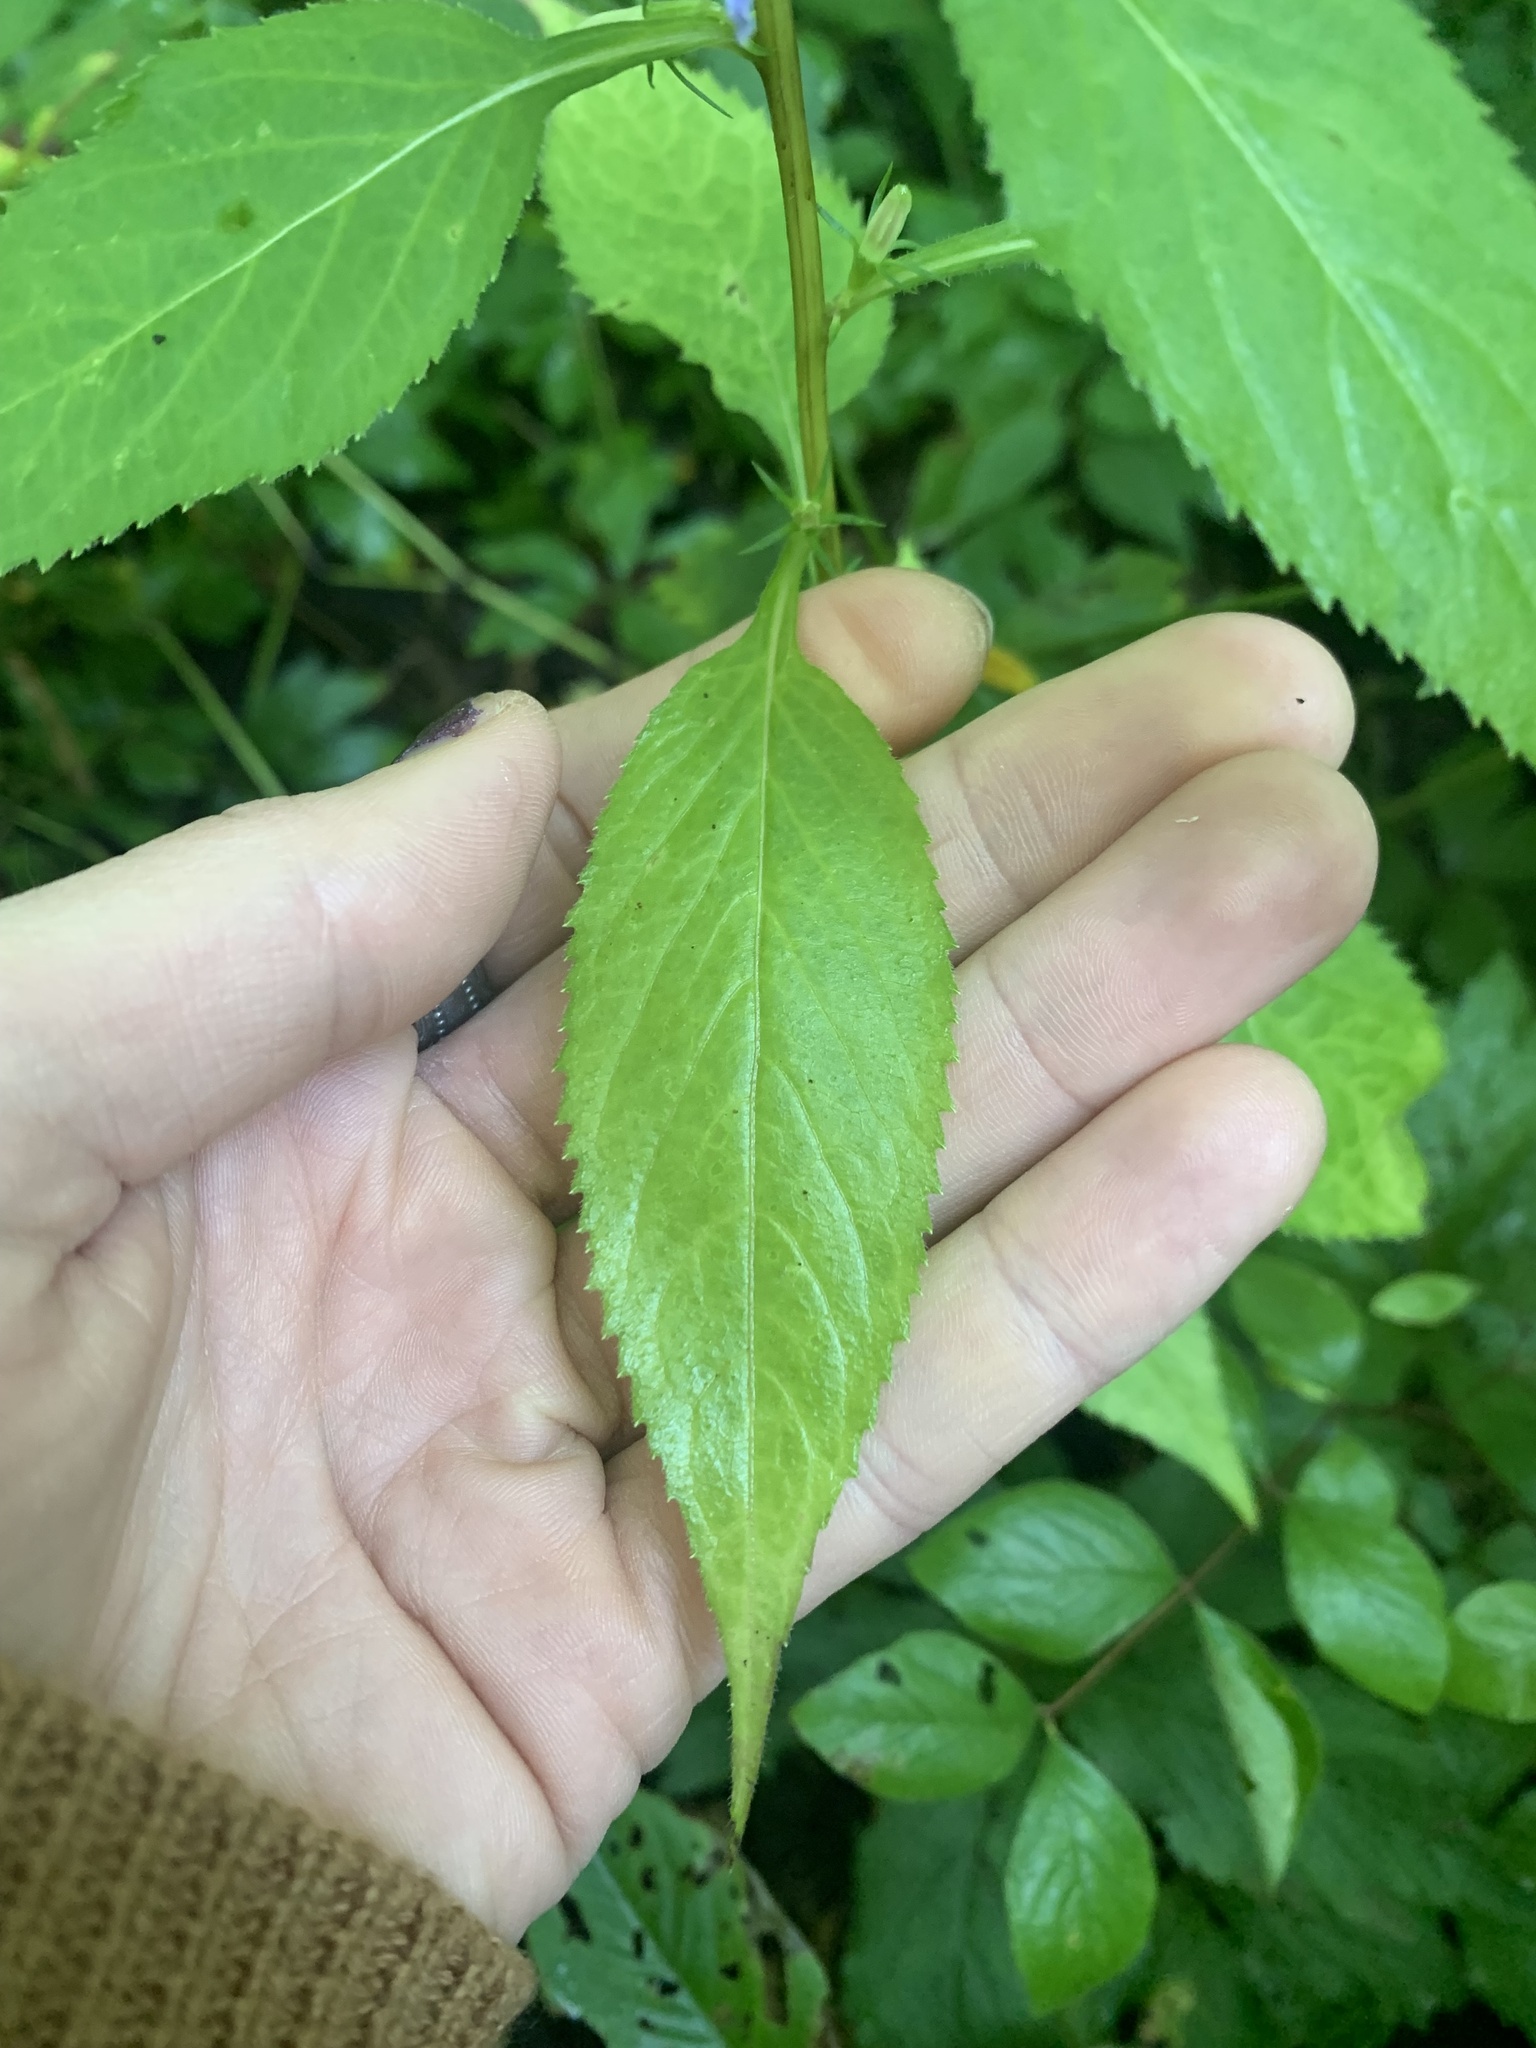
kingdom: Plantae
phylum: Tracheophyta
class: Magnoliopsida
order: Asterales
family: Campanulaceae
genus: Campanulastrum
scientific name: Campanulastrum americanum
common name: American bellflower
